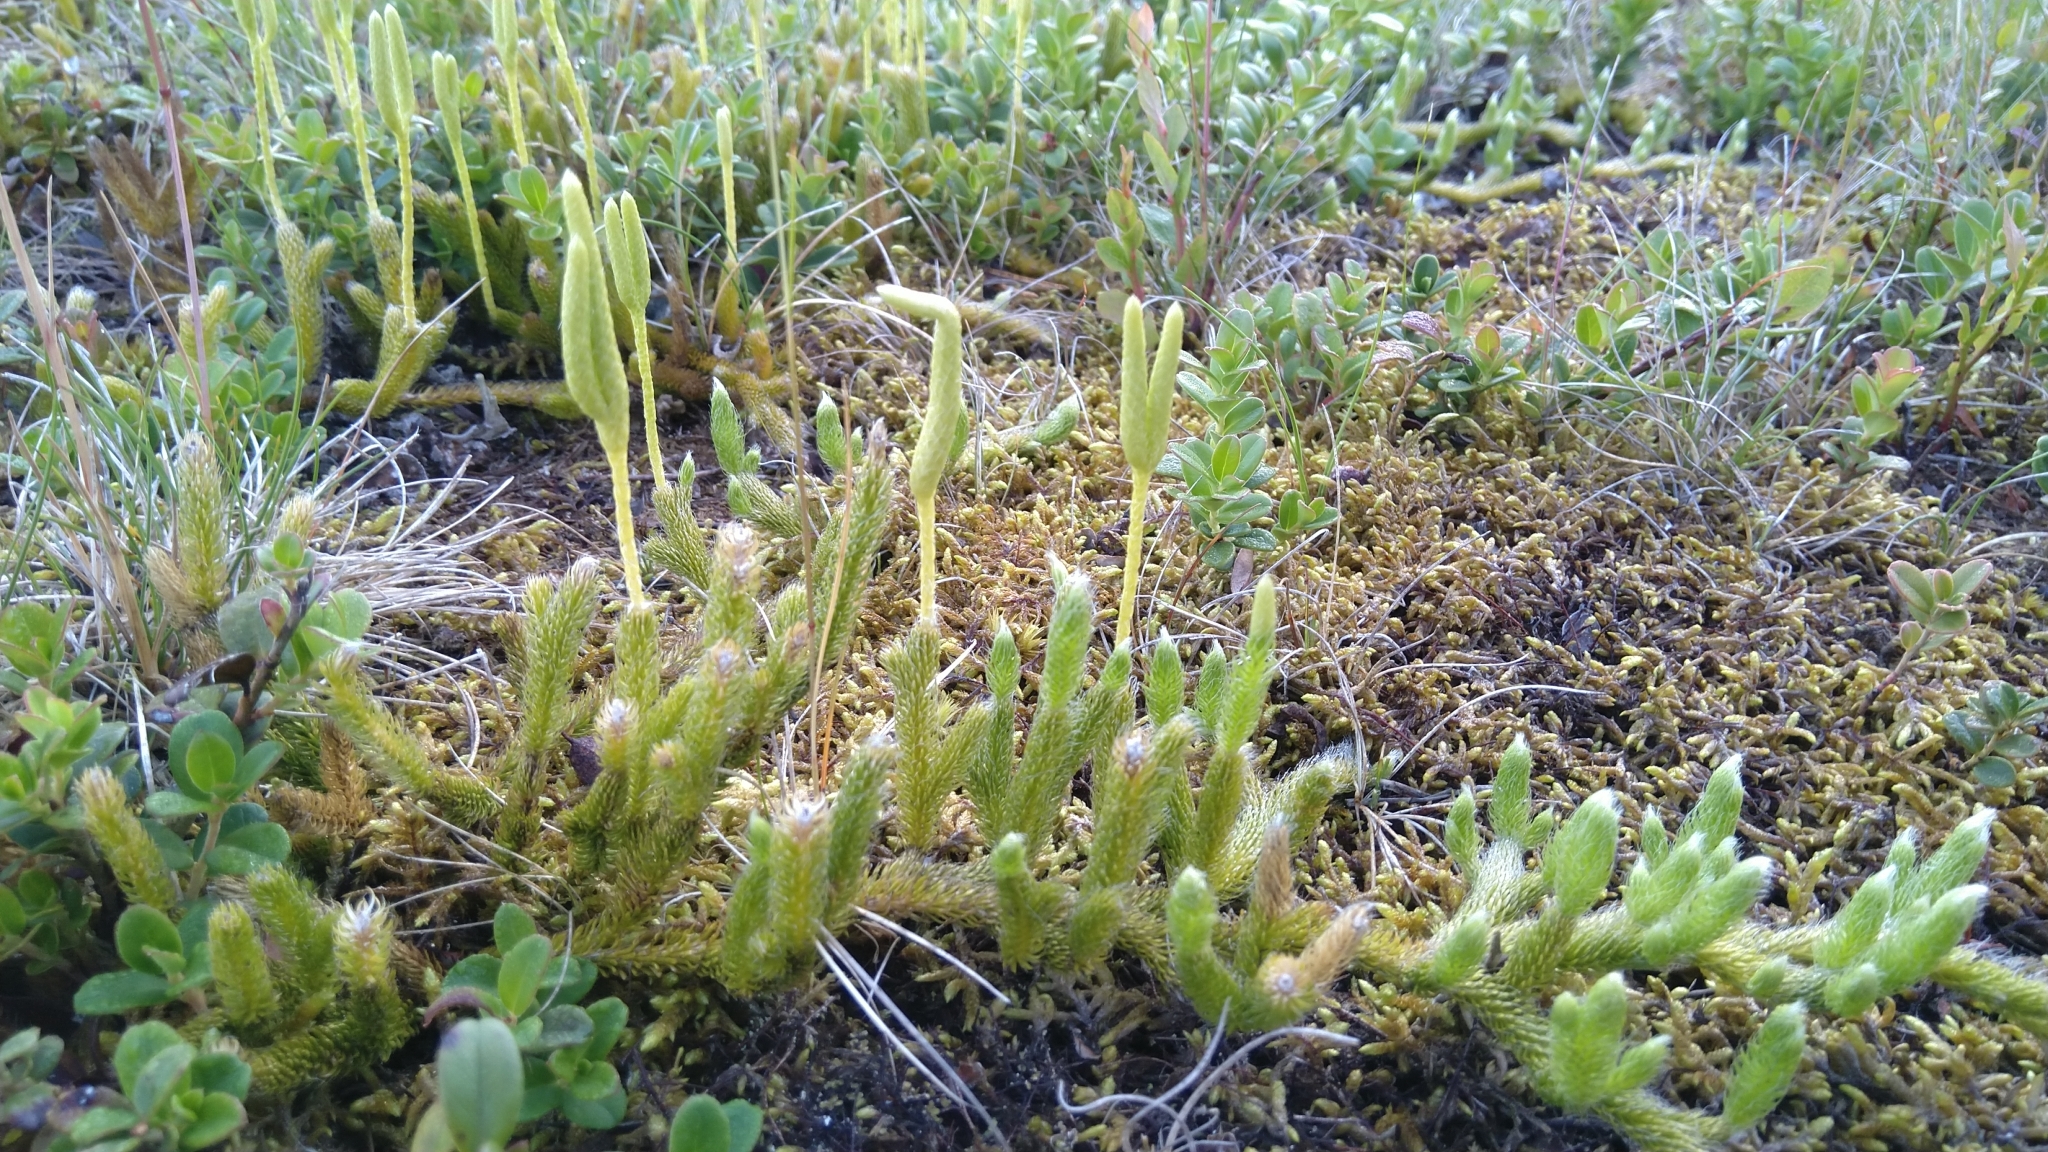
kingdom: Plantae
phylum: Tracheophyta
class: Lycopodiopsida
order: Lycopodiales
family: Lycopodiaceae
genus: Lycopodium
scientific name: Lycopodium clavatum
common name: Stag's-horn clubmoss
